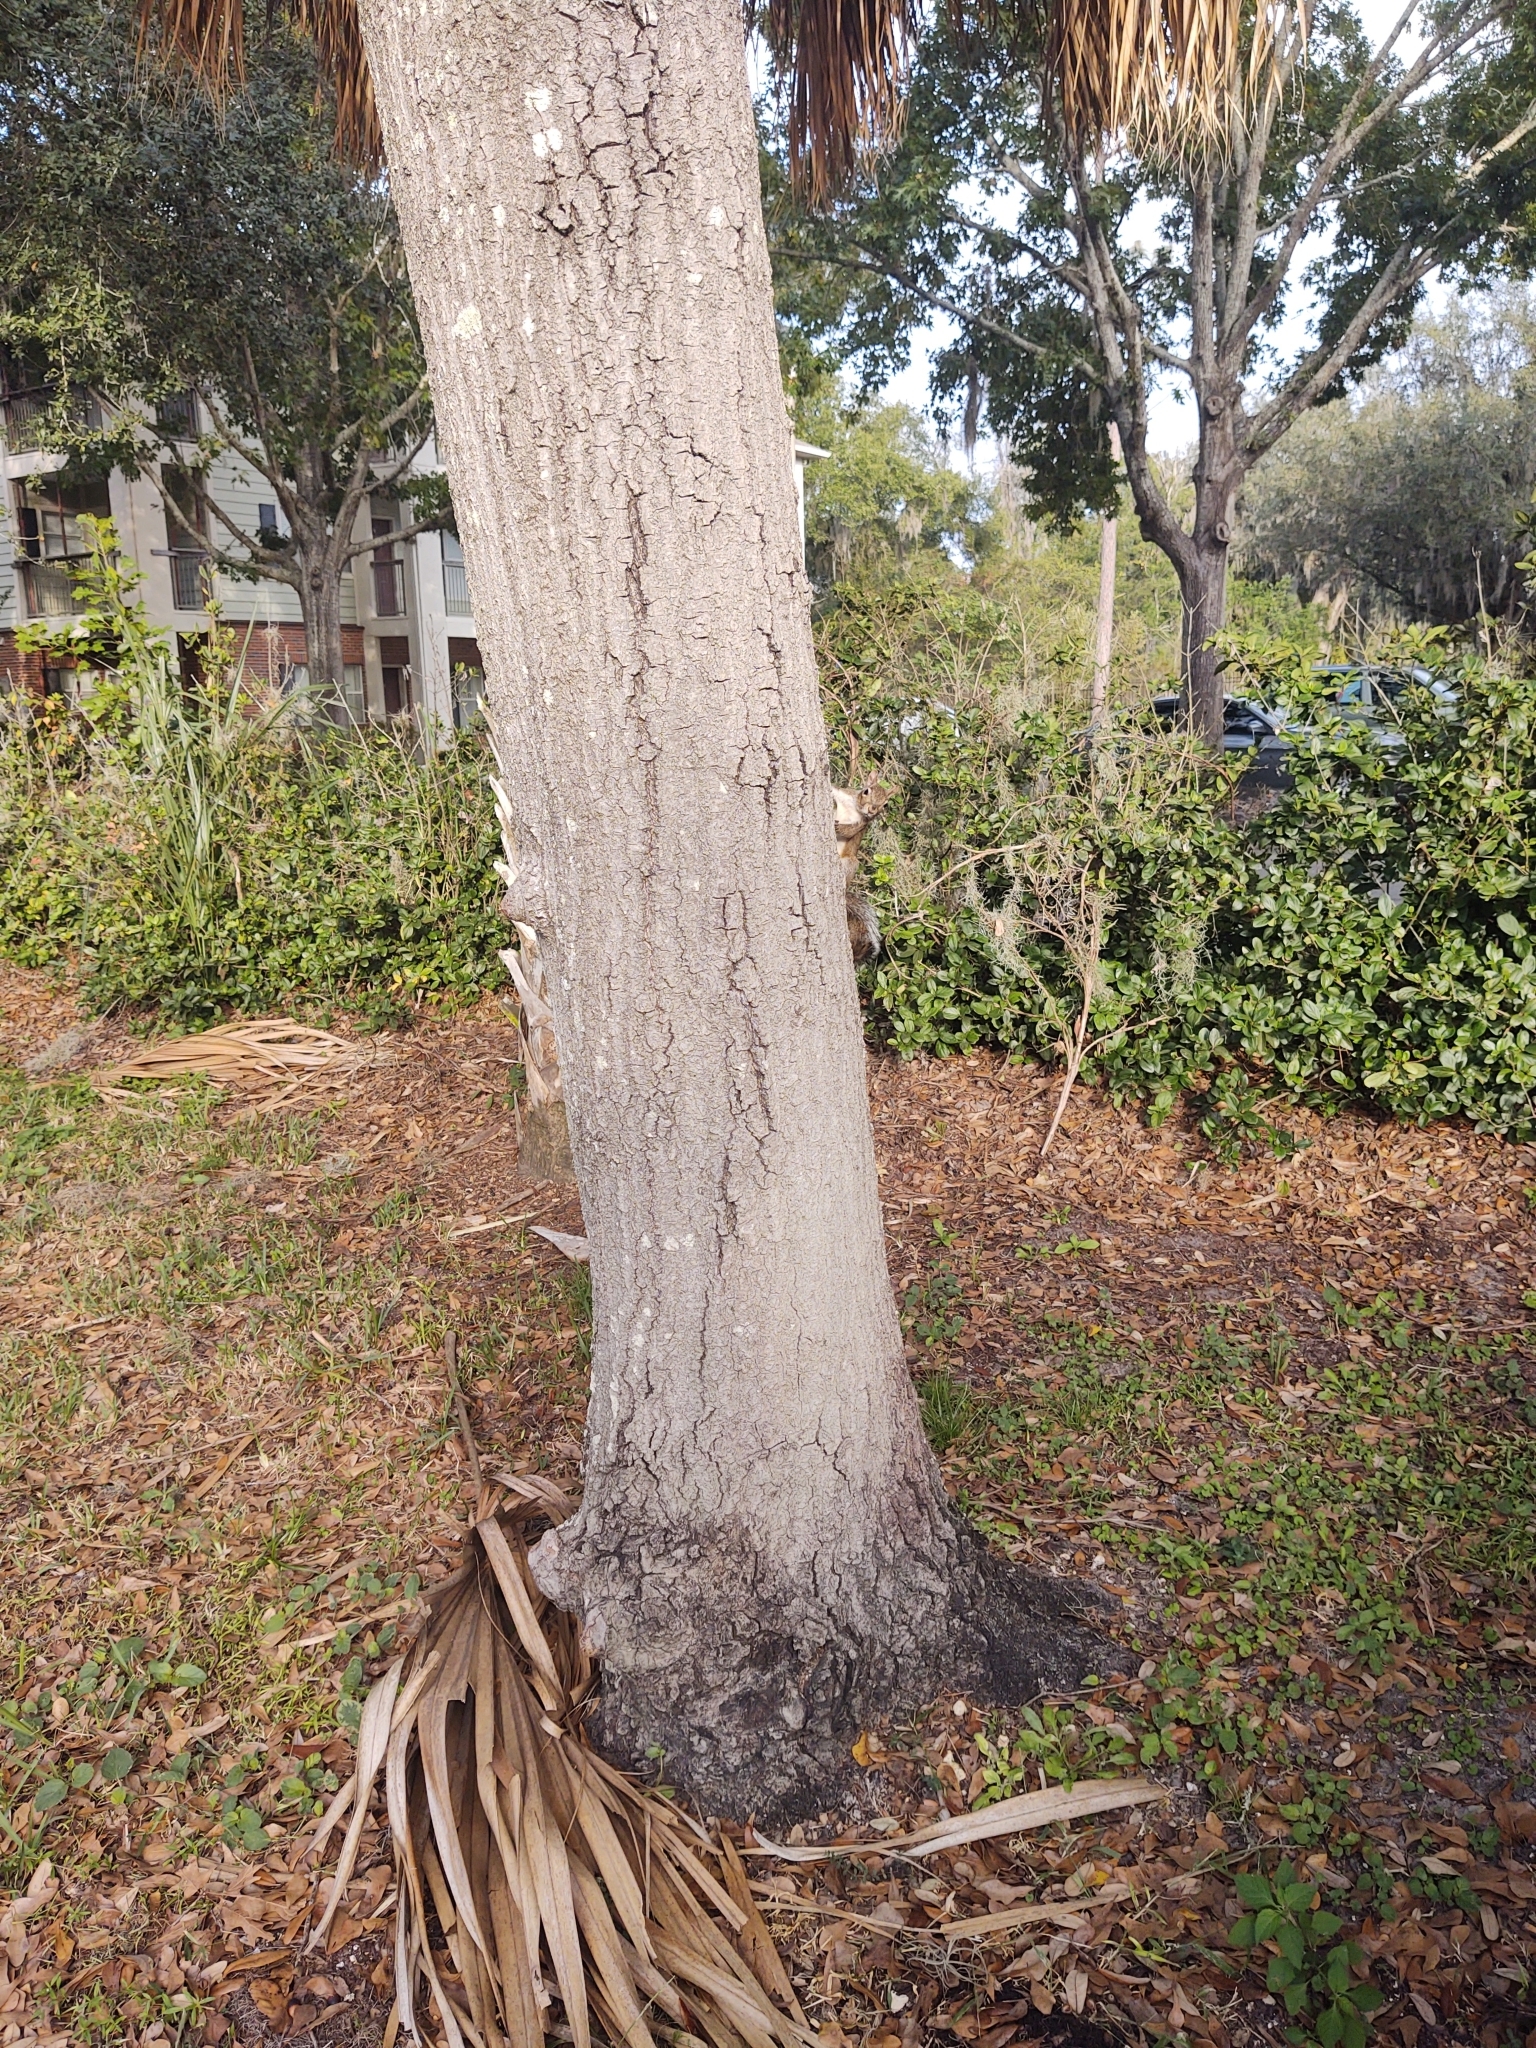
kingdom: Animalia
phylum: Chordata
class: Mammalia
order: Rodentia
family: Sciuridae
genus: Sciurus
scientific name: Sciurus carolinensis
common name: Eastern gray squirrel
